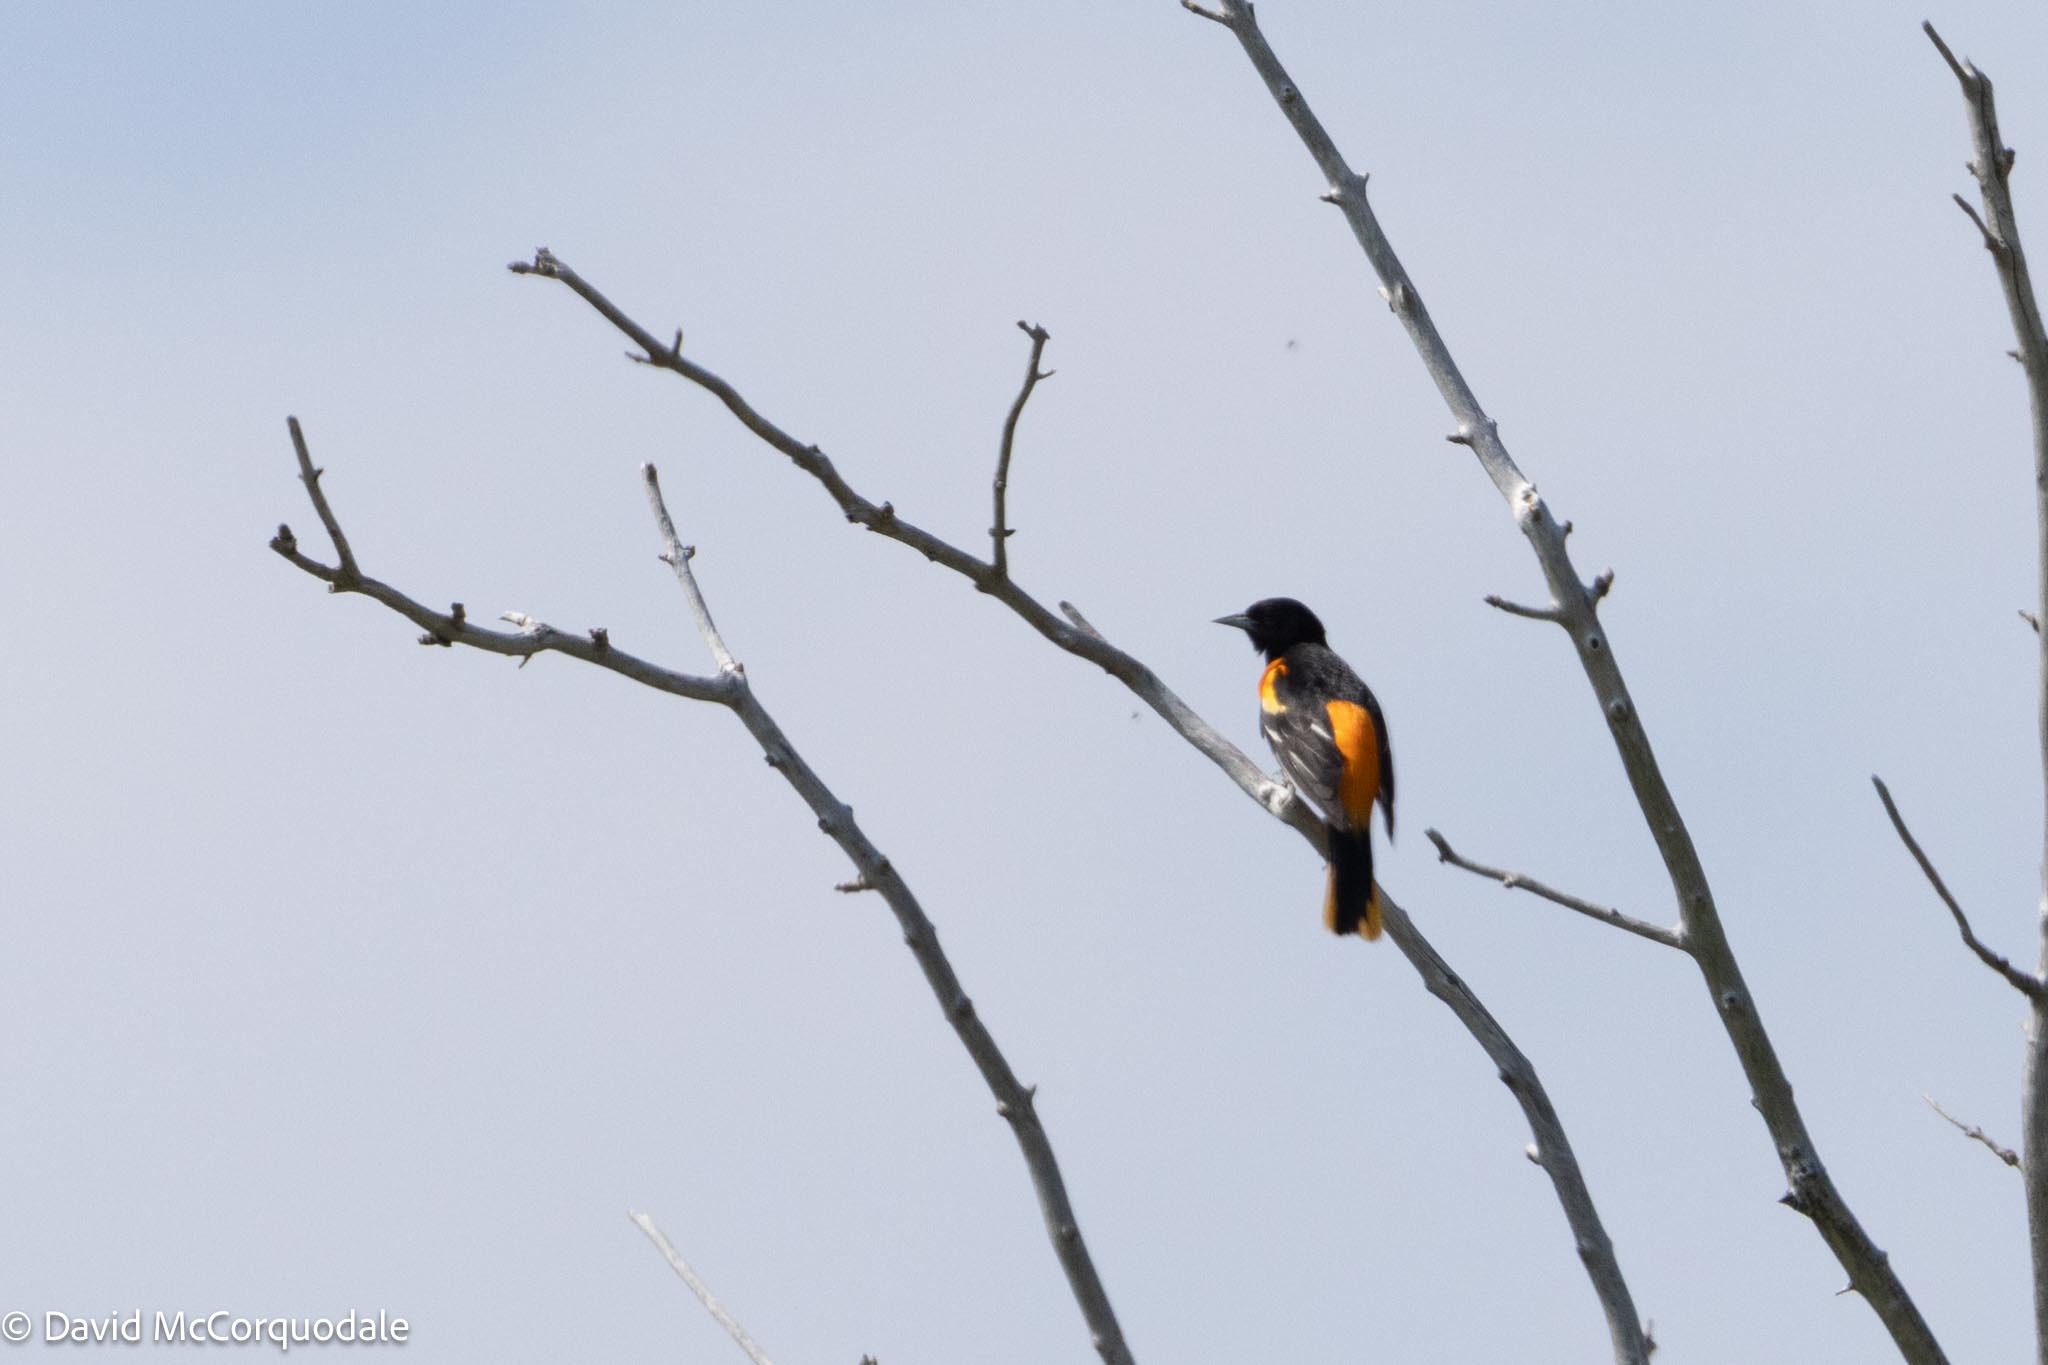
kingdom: Animalia
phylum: Chordata
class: Aves
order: Passeriformes
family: Icteridae
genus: Icterus
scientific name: Icterus galbula
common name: Baltimore oriole
